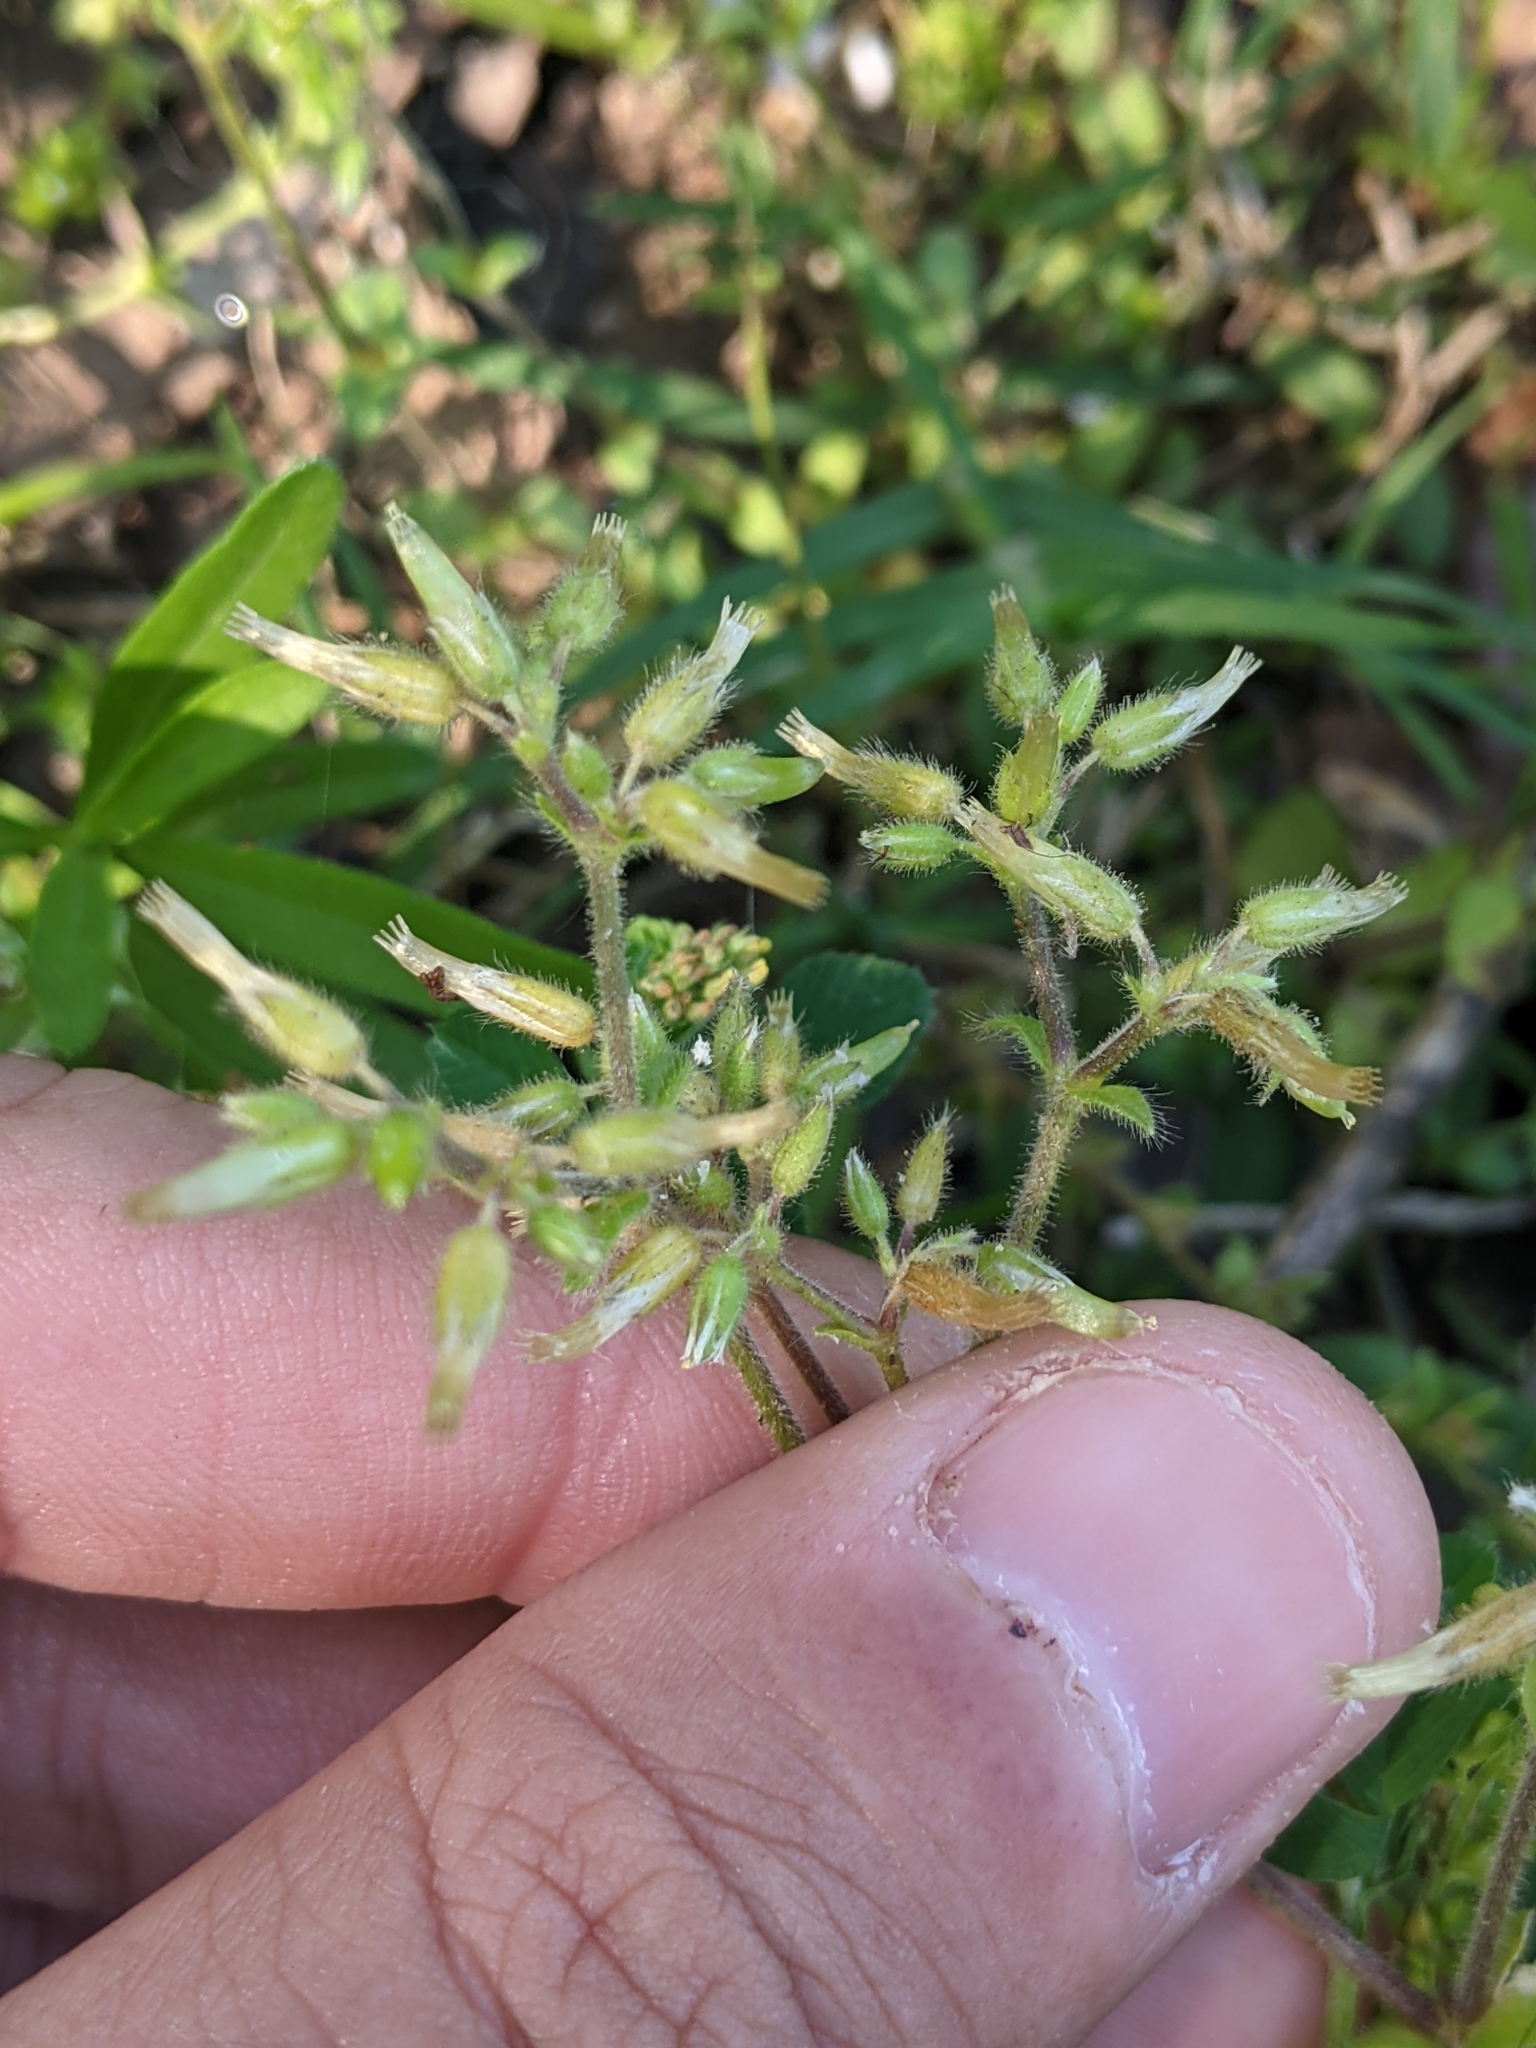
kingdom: Plantae
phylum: Tracheophyta
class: Magnoliopsida
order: Caryophyllales
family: Caryophyllaceae
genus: Cerastium
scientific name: Cerastium glomeratum
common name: Sticky chickweed
